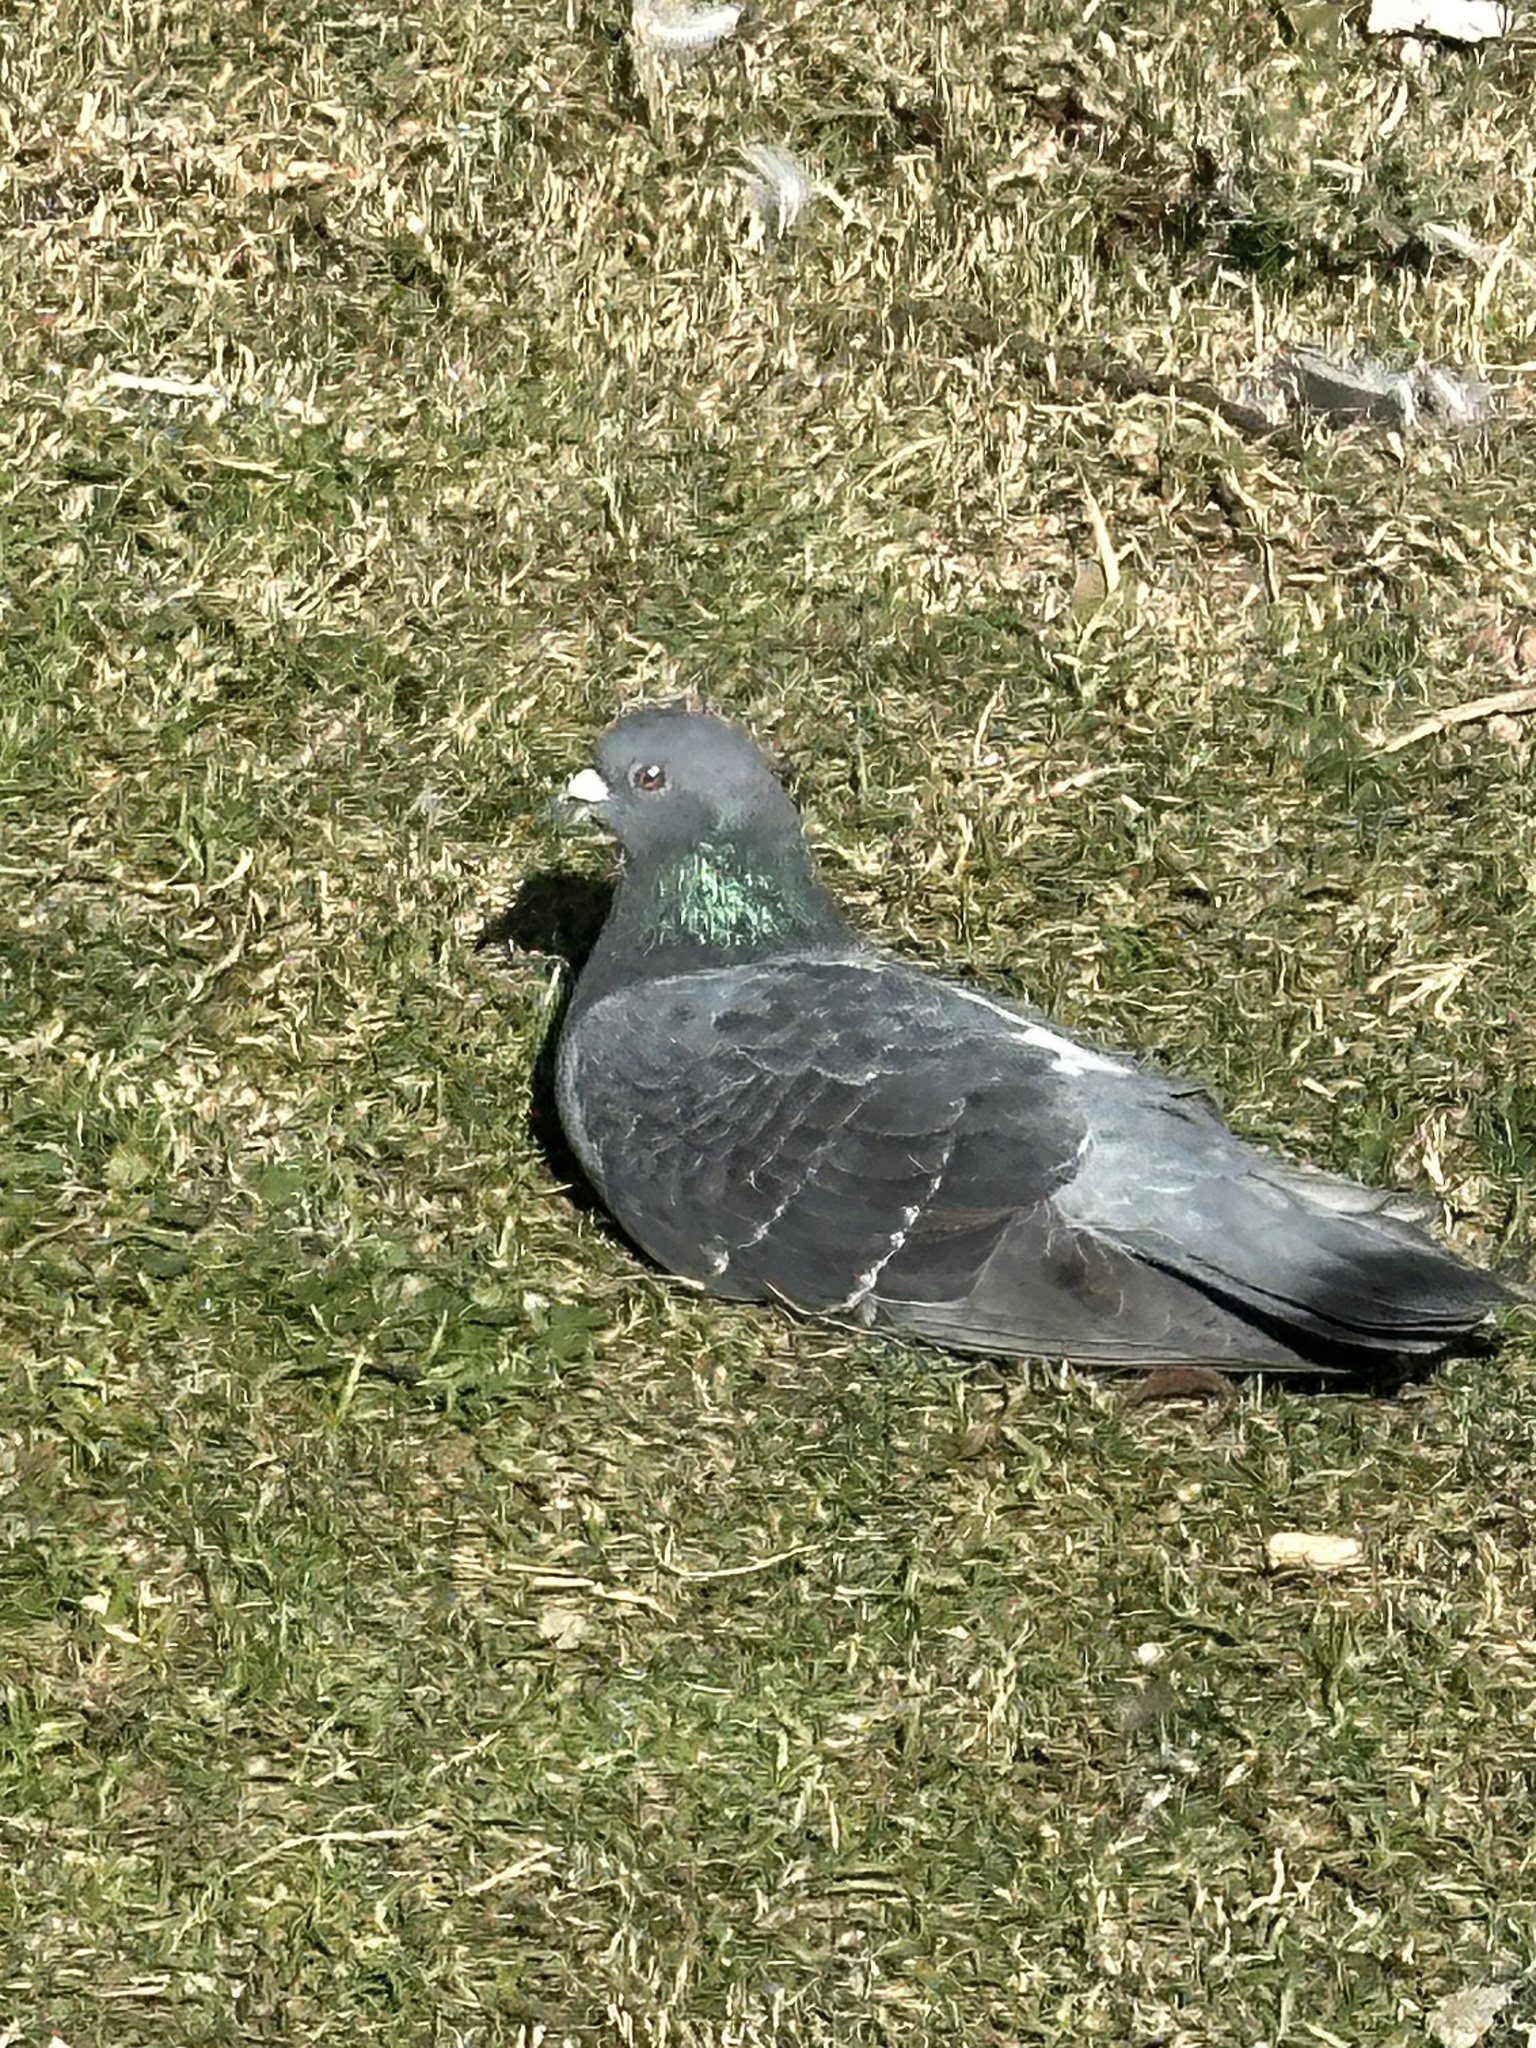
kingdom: Animalia
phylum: Chordata
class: Aves
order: Columbiformes
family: Columbidae
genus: Columba
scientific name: Columba livia
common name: Rock pigeon
